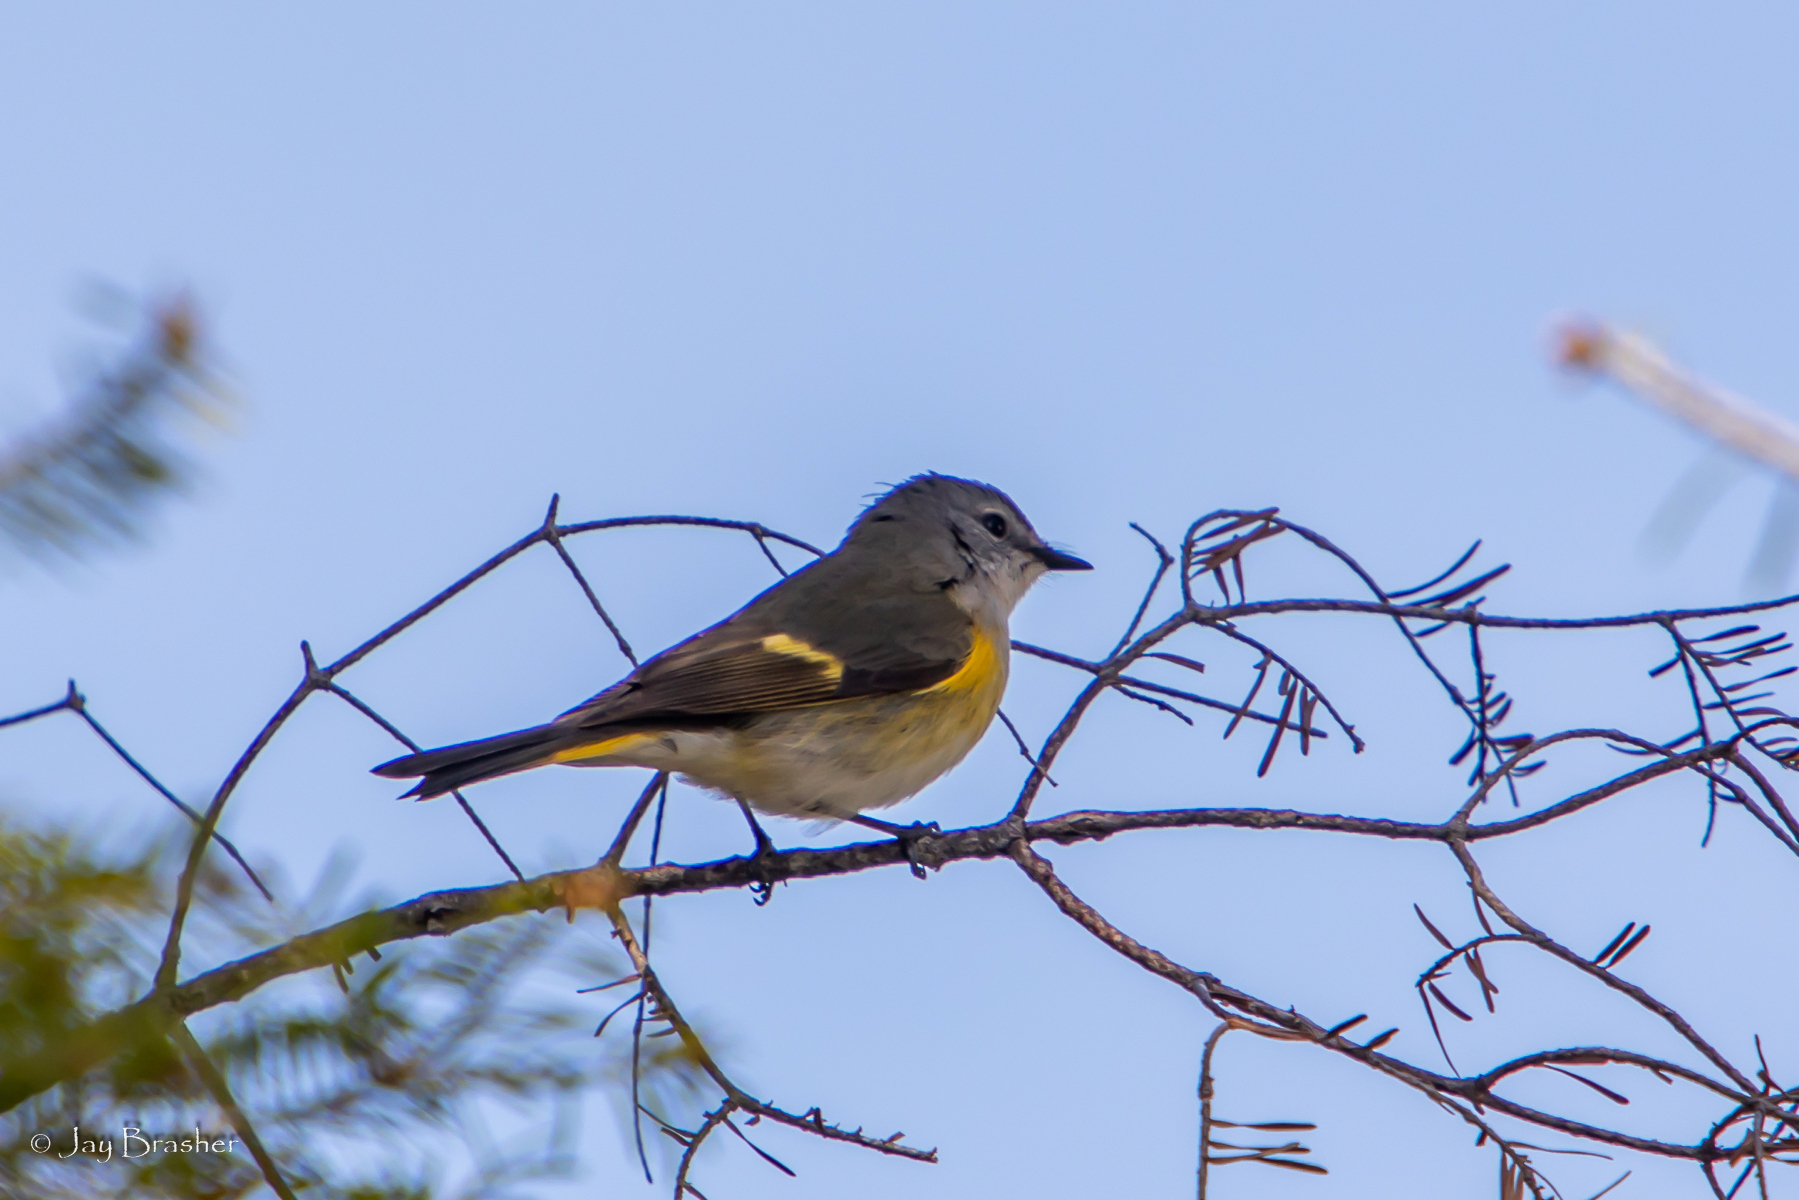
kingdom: Animalia
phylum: Chordata
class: Aves
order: Passeriformes
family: Parulidae
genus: Setophaga
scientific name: Setophaga ruticilla
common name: American redstart
